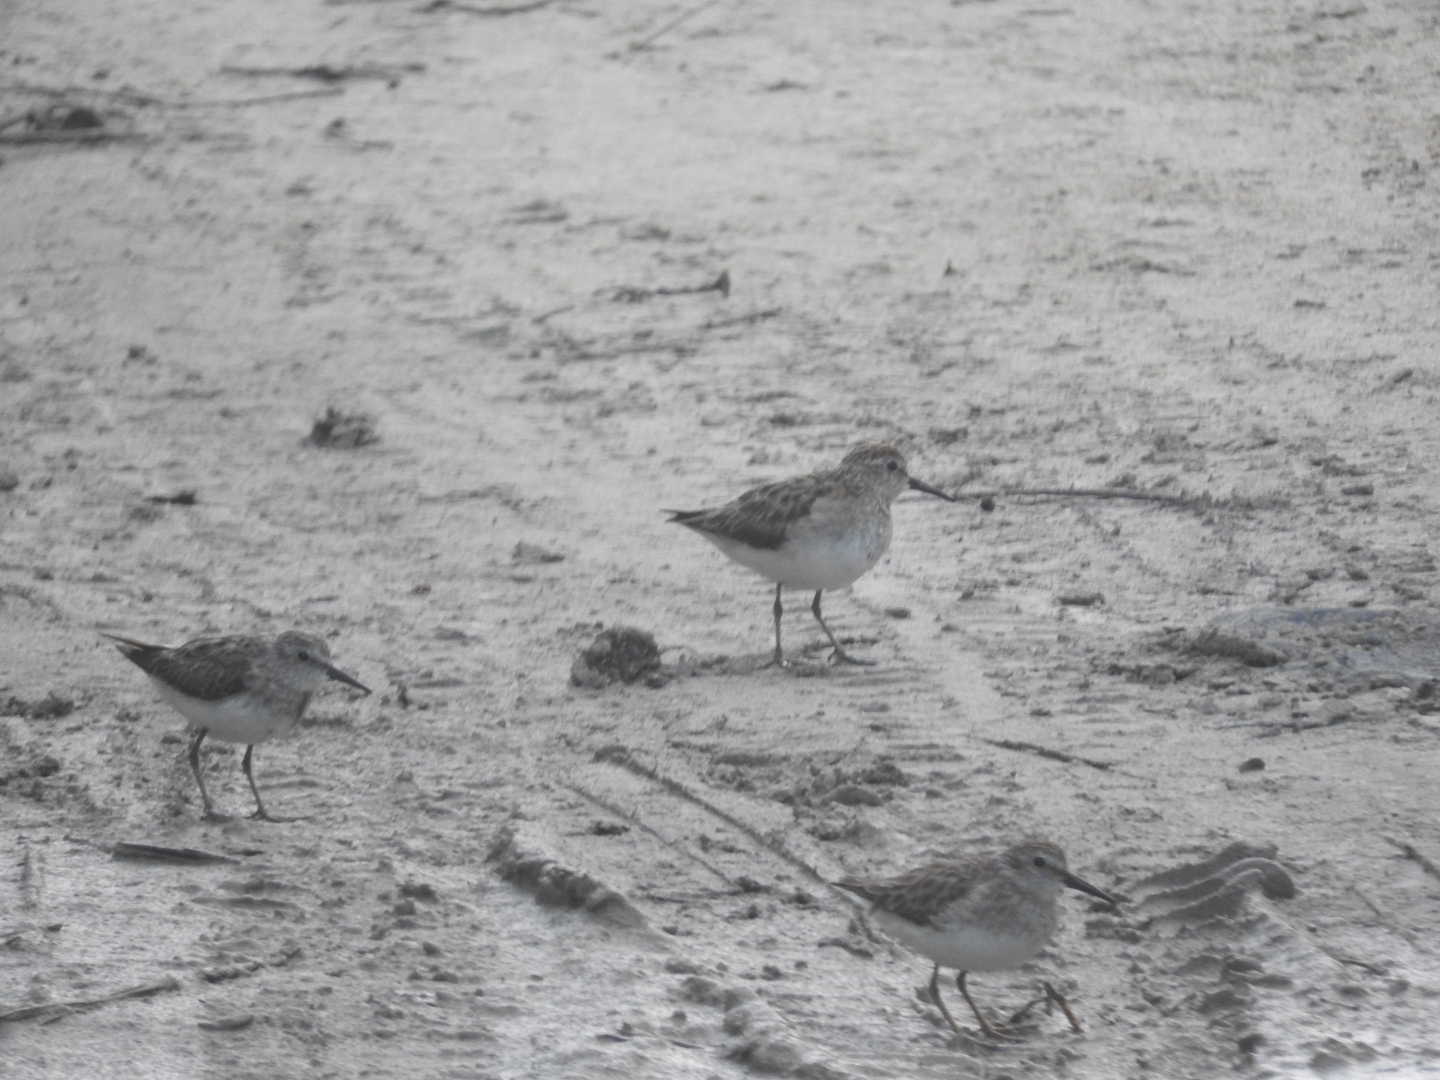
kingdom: Animalia
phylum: Chordata
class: Aves
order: Charadriiformes
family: Scolopacidae
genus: Calidris
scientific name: Calidris minutilla
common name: Least sandpiper
